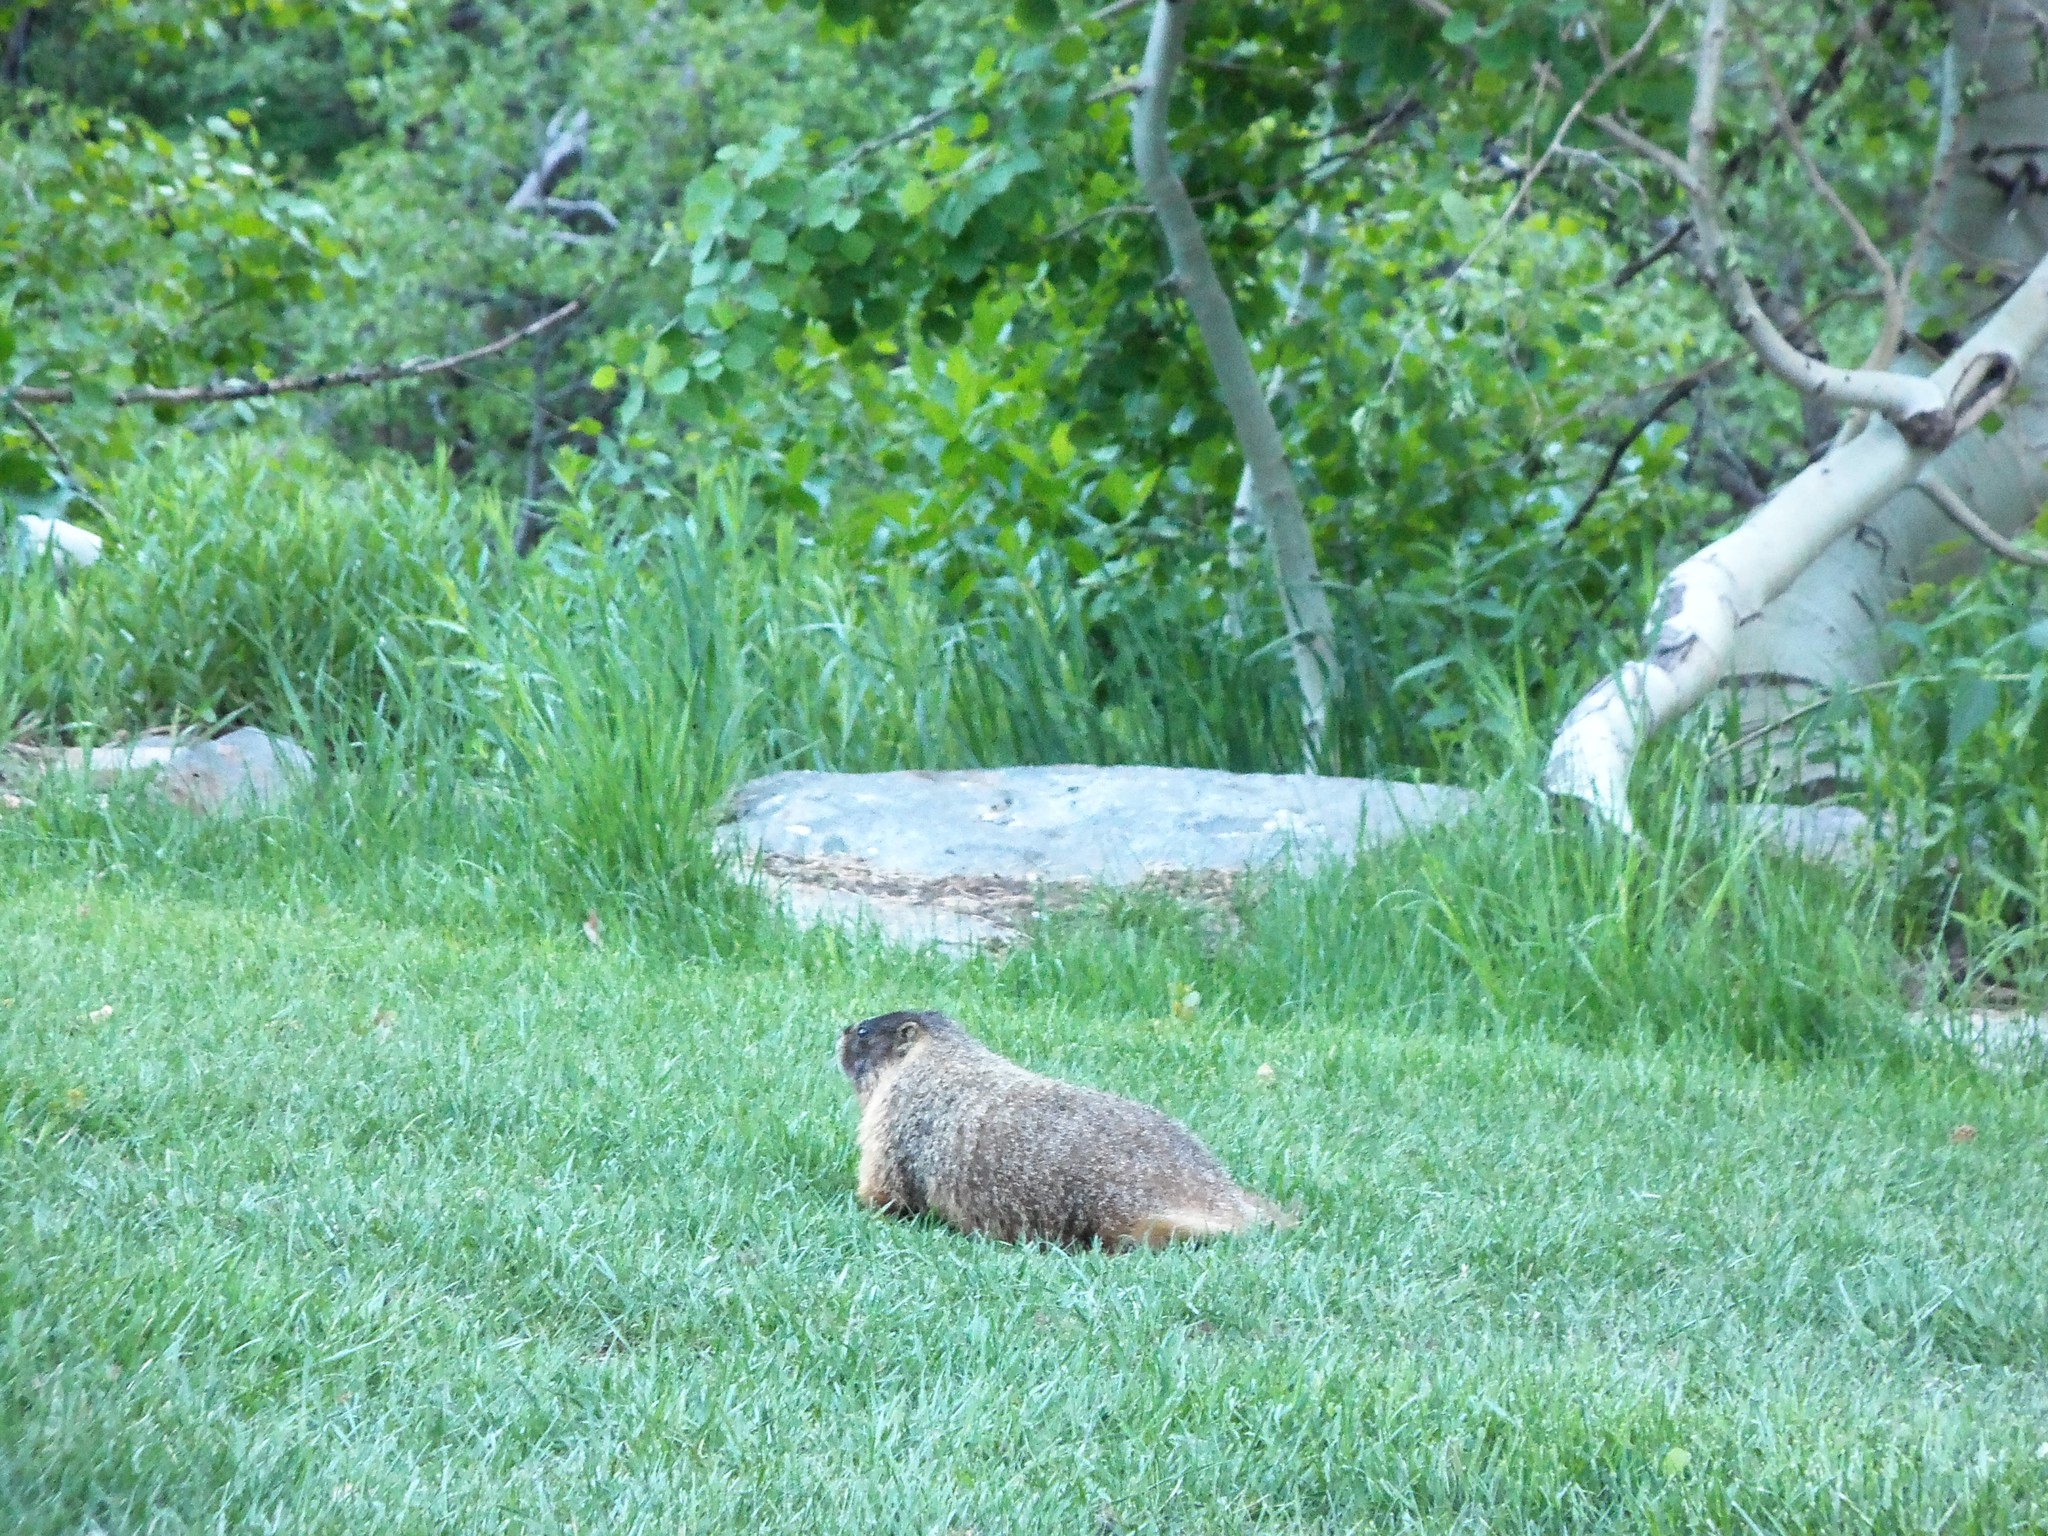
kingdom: Animalia
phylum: Chordata
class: Mammalia
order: Rodentia
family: Sciuridae
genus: Marmota
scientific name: Marmota flaviventris
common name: Yellow-bellied marmot
